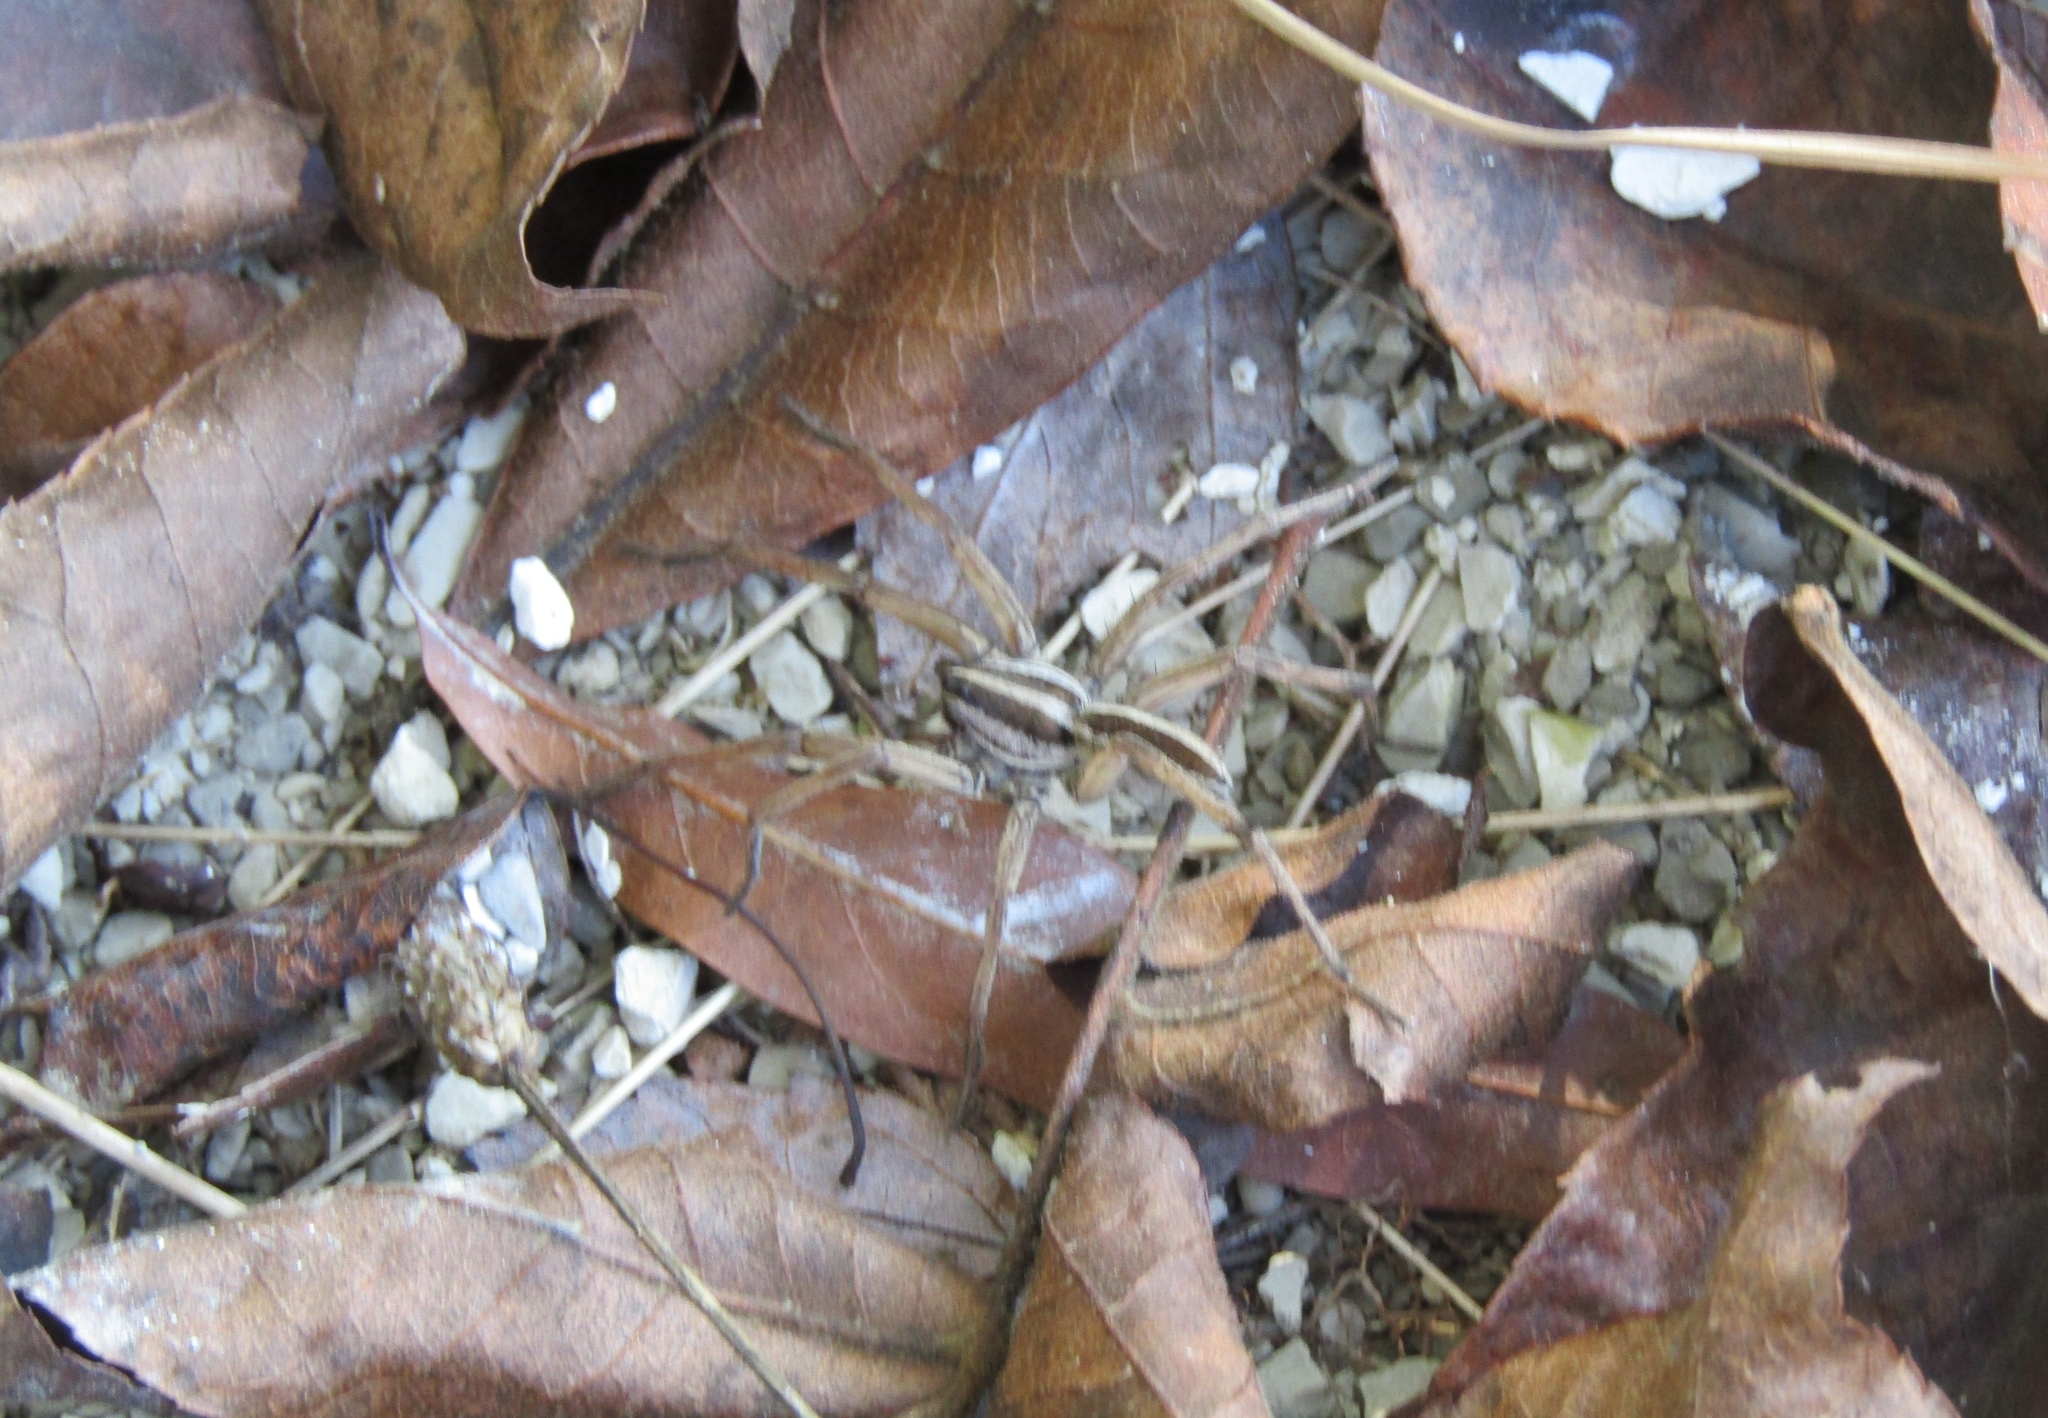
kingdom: Animalia
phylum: Arthropoda
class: Arachnida
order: Araneae
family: Lycosidae
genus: Rabidosa
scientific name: Rabidosa
